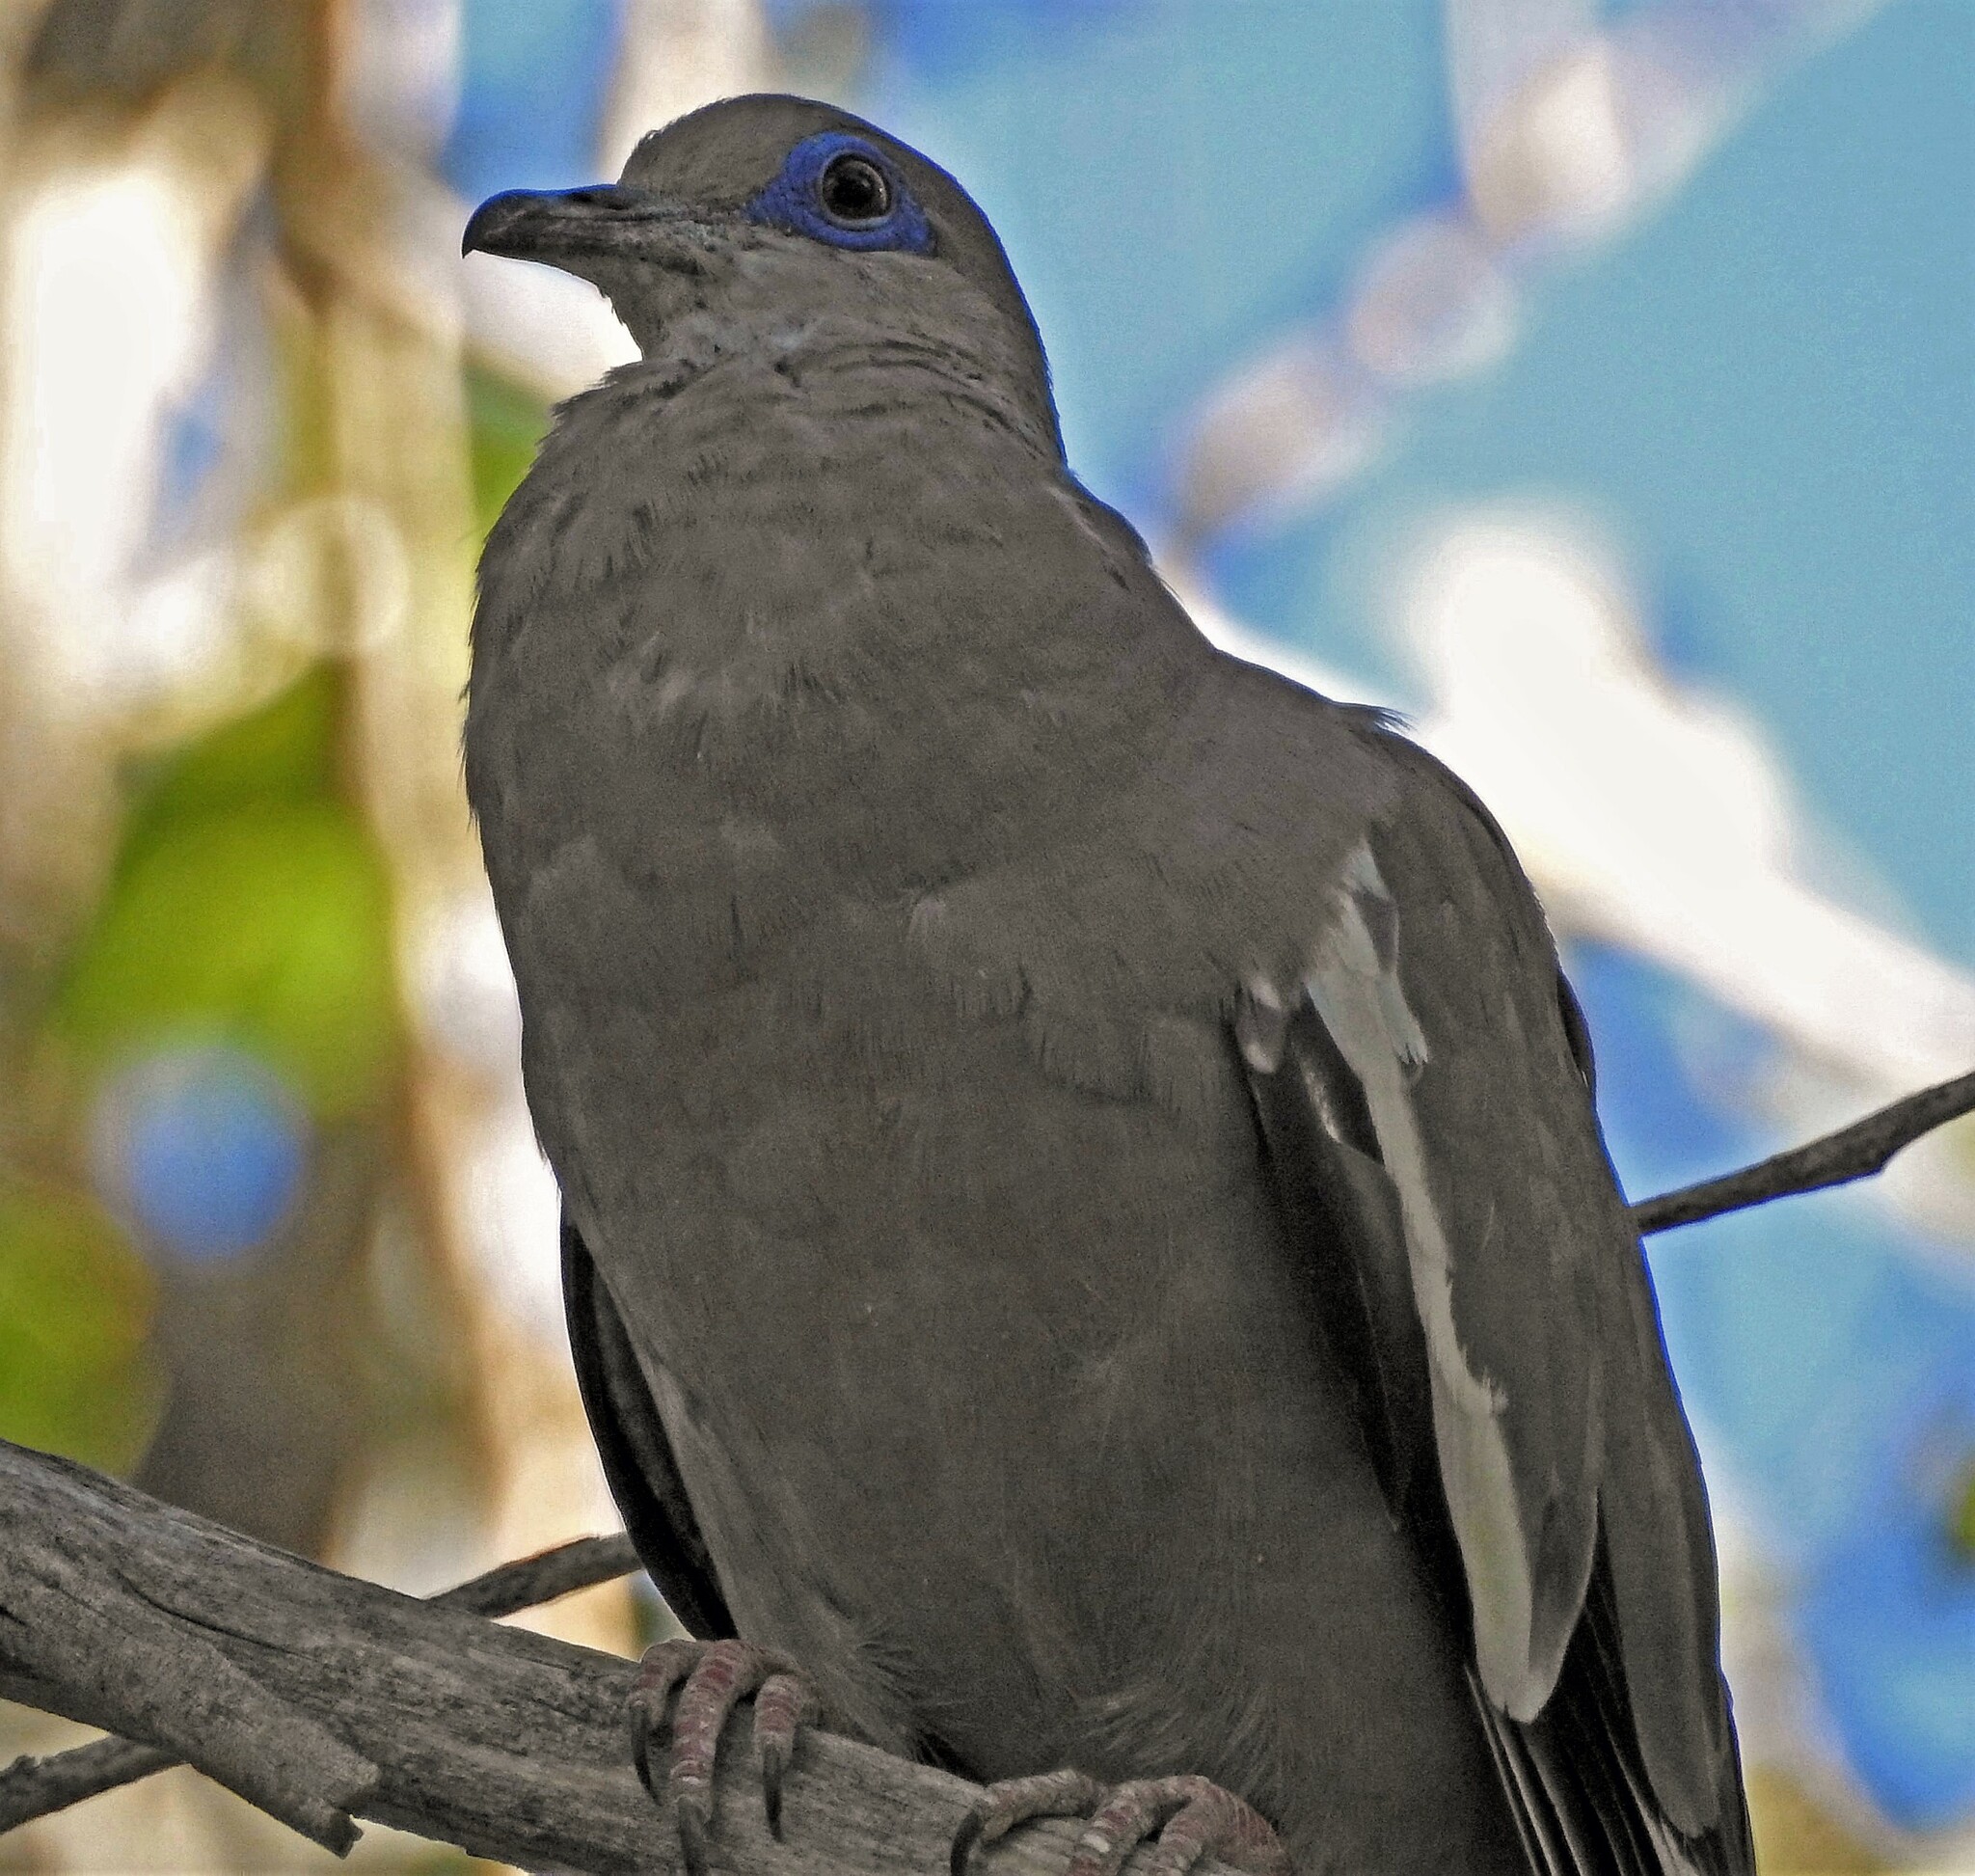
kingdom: Animalia
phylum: Chordata
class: Aves
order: Columbiformes
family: Columbidae
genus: Zenaida
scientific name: Zenaida meloda
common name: West peruvian dove
